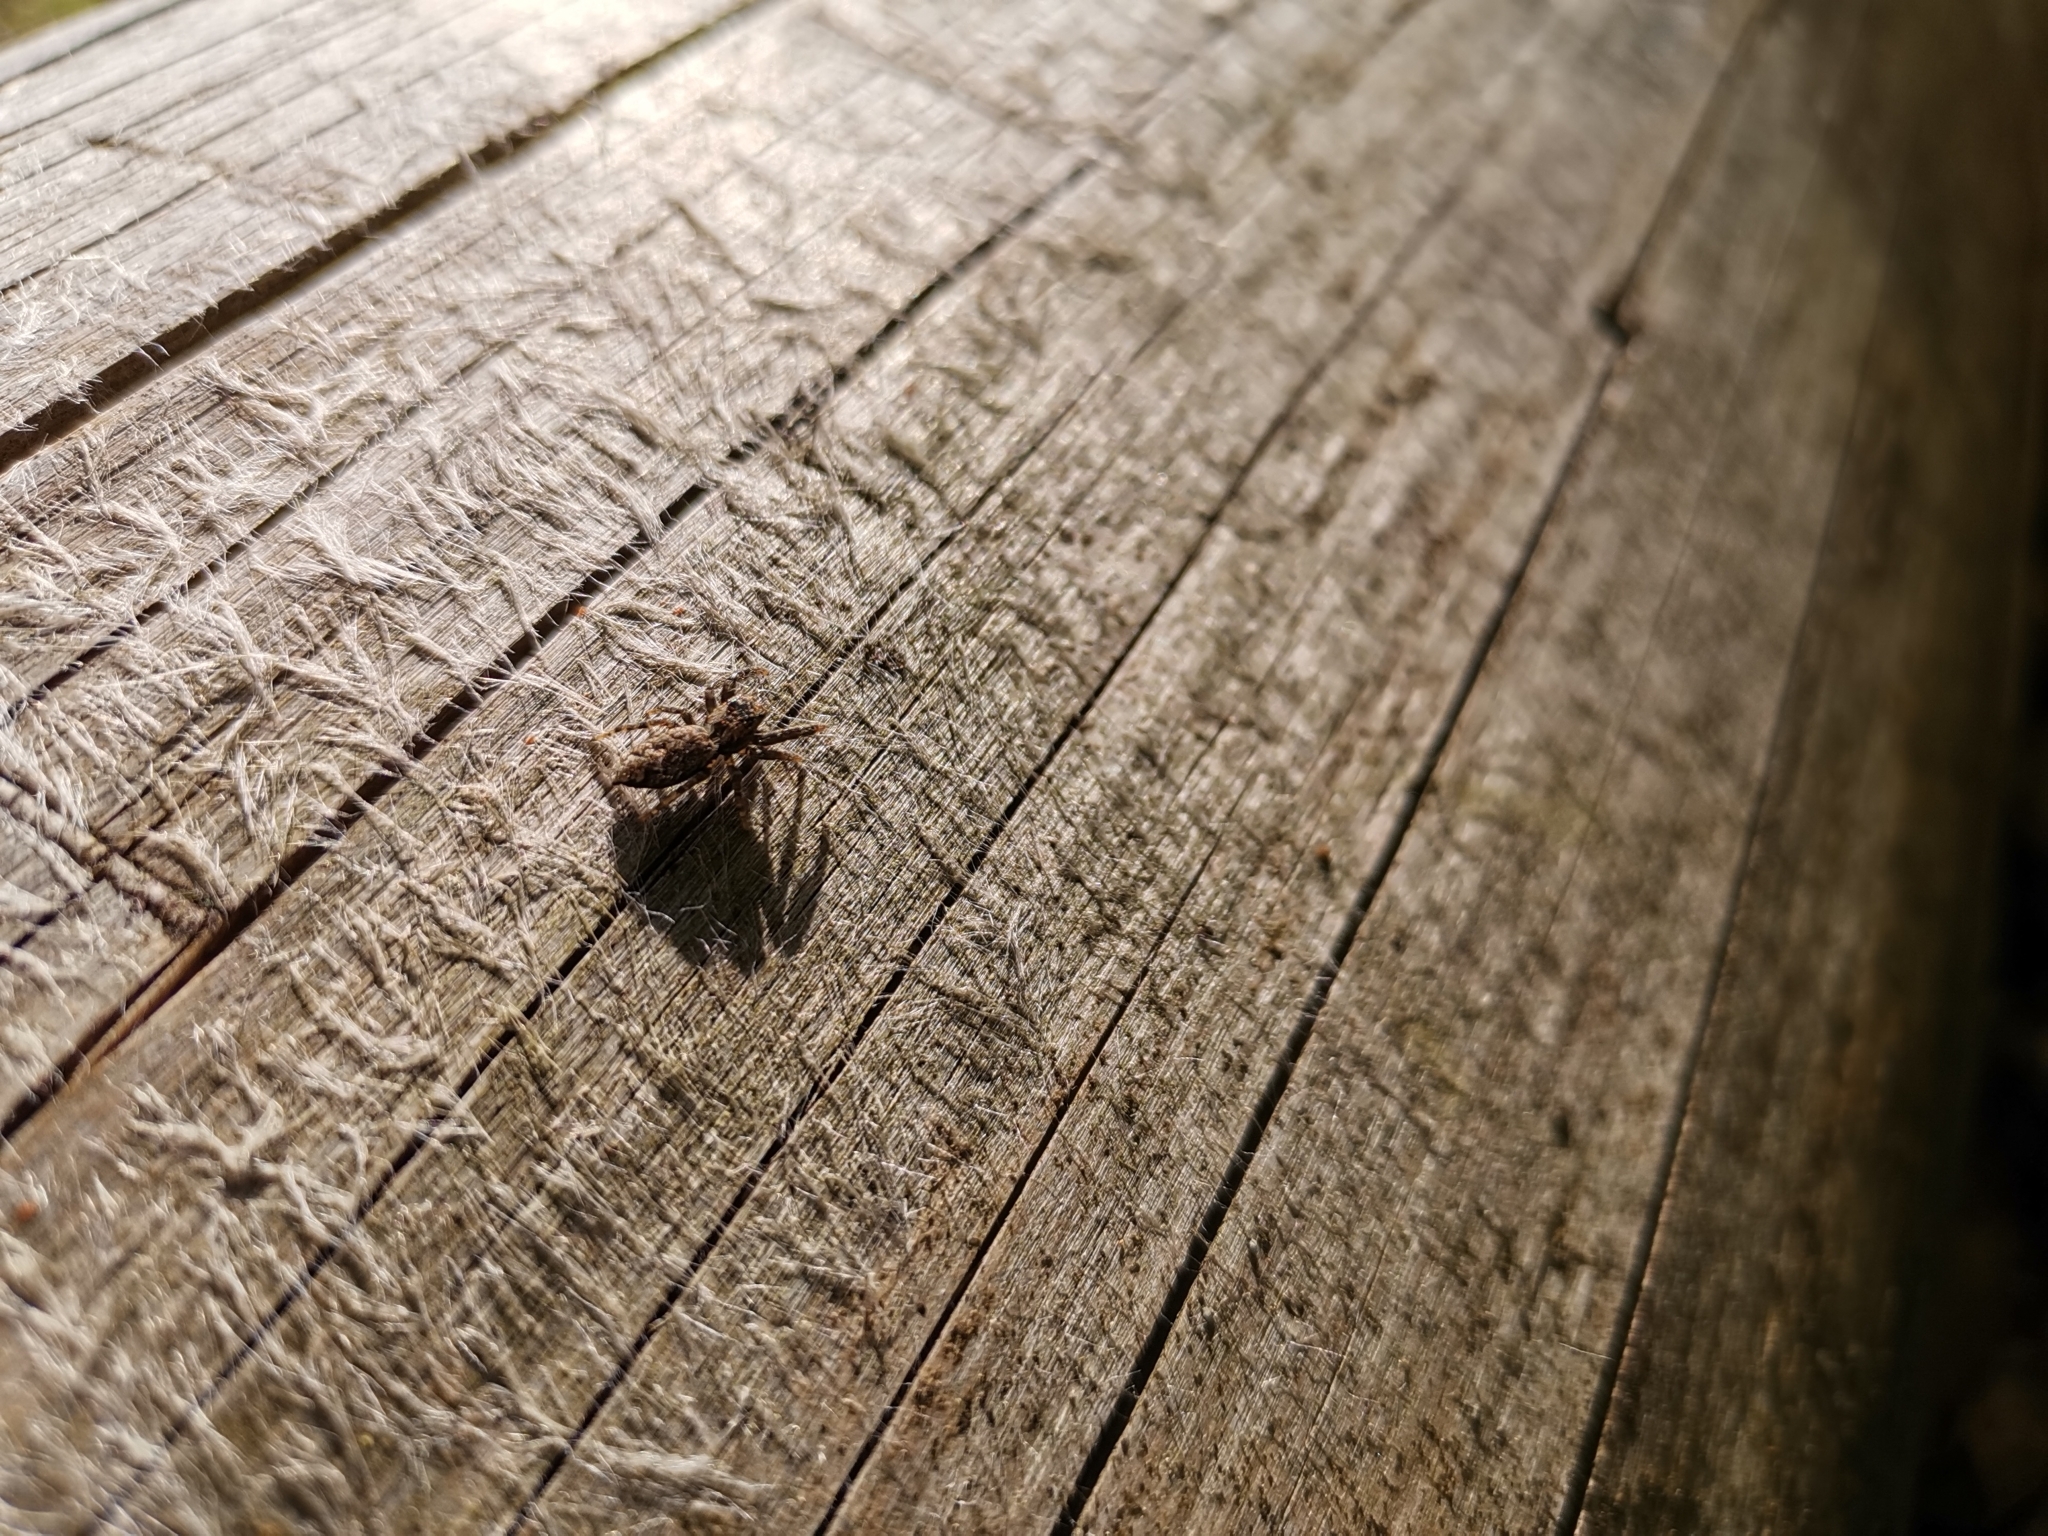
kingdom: Animalia
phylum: Arthropoda
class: Arachnida
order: Araneae
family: Salticidae
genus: Marpissa
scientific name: Marpissa muscosa
